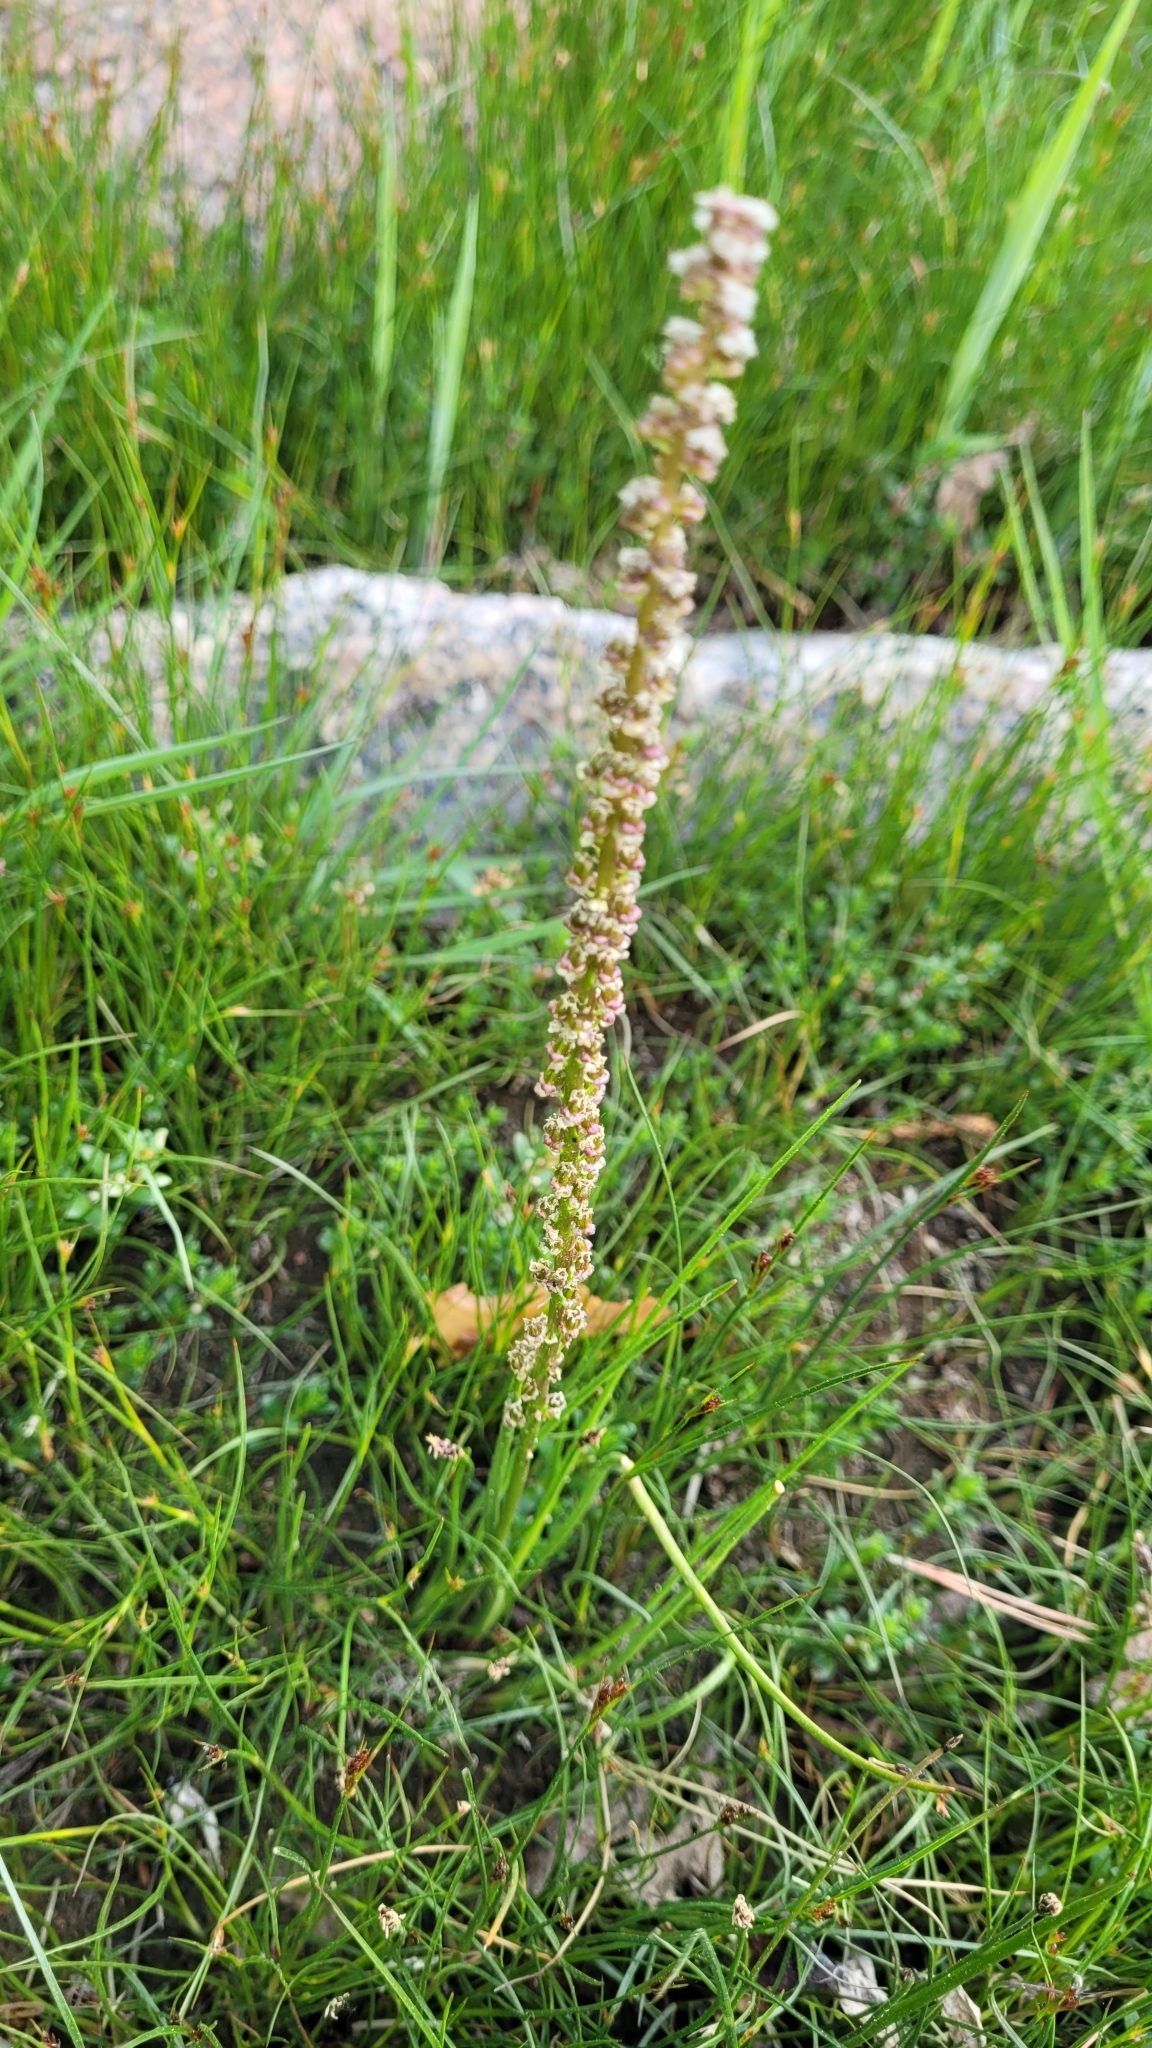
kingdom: Plantae
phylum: Tracheophyta
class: Liliopsida
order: Alismatales
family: Juncaginaceae
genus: Triglochin
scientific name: Triglochin maritima
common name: Sea arrowgrass
